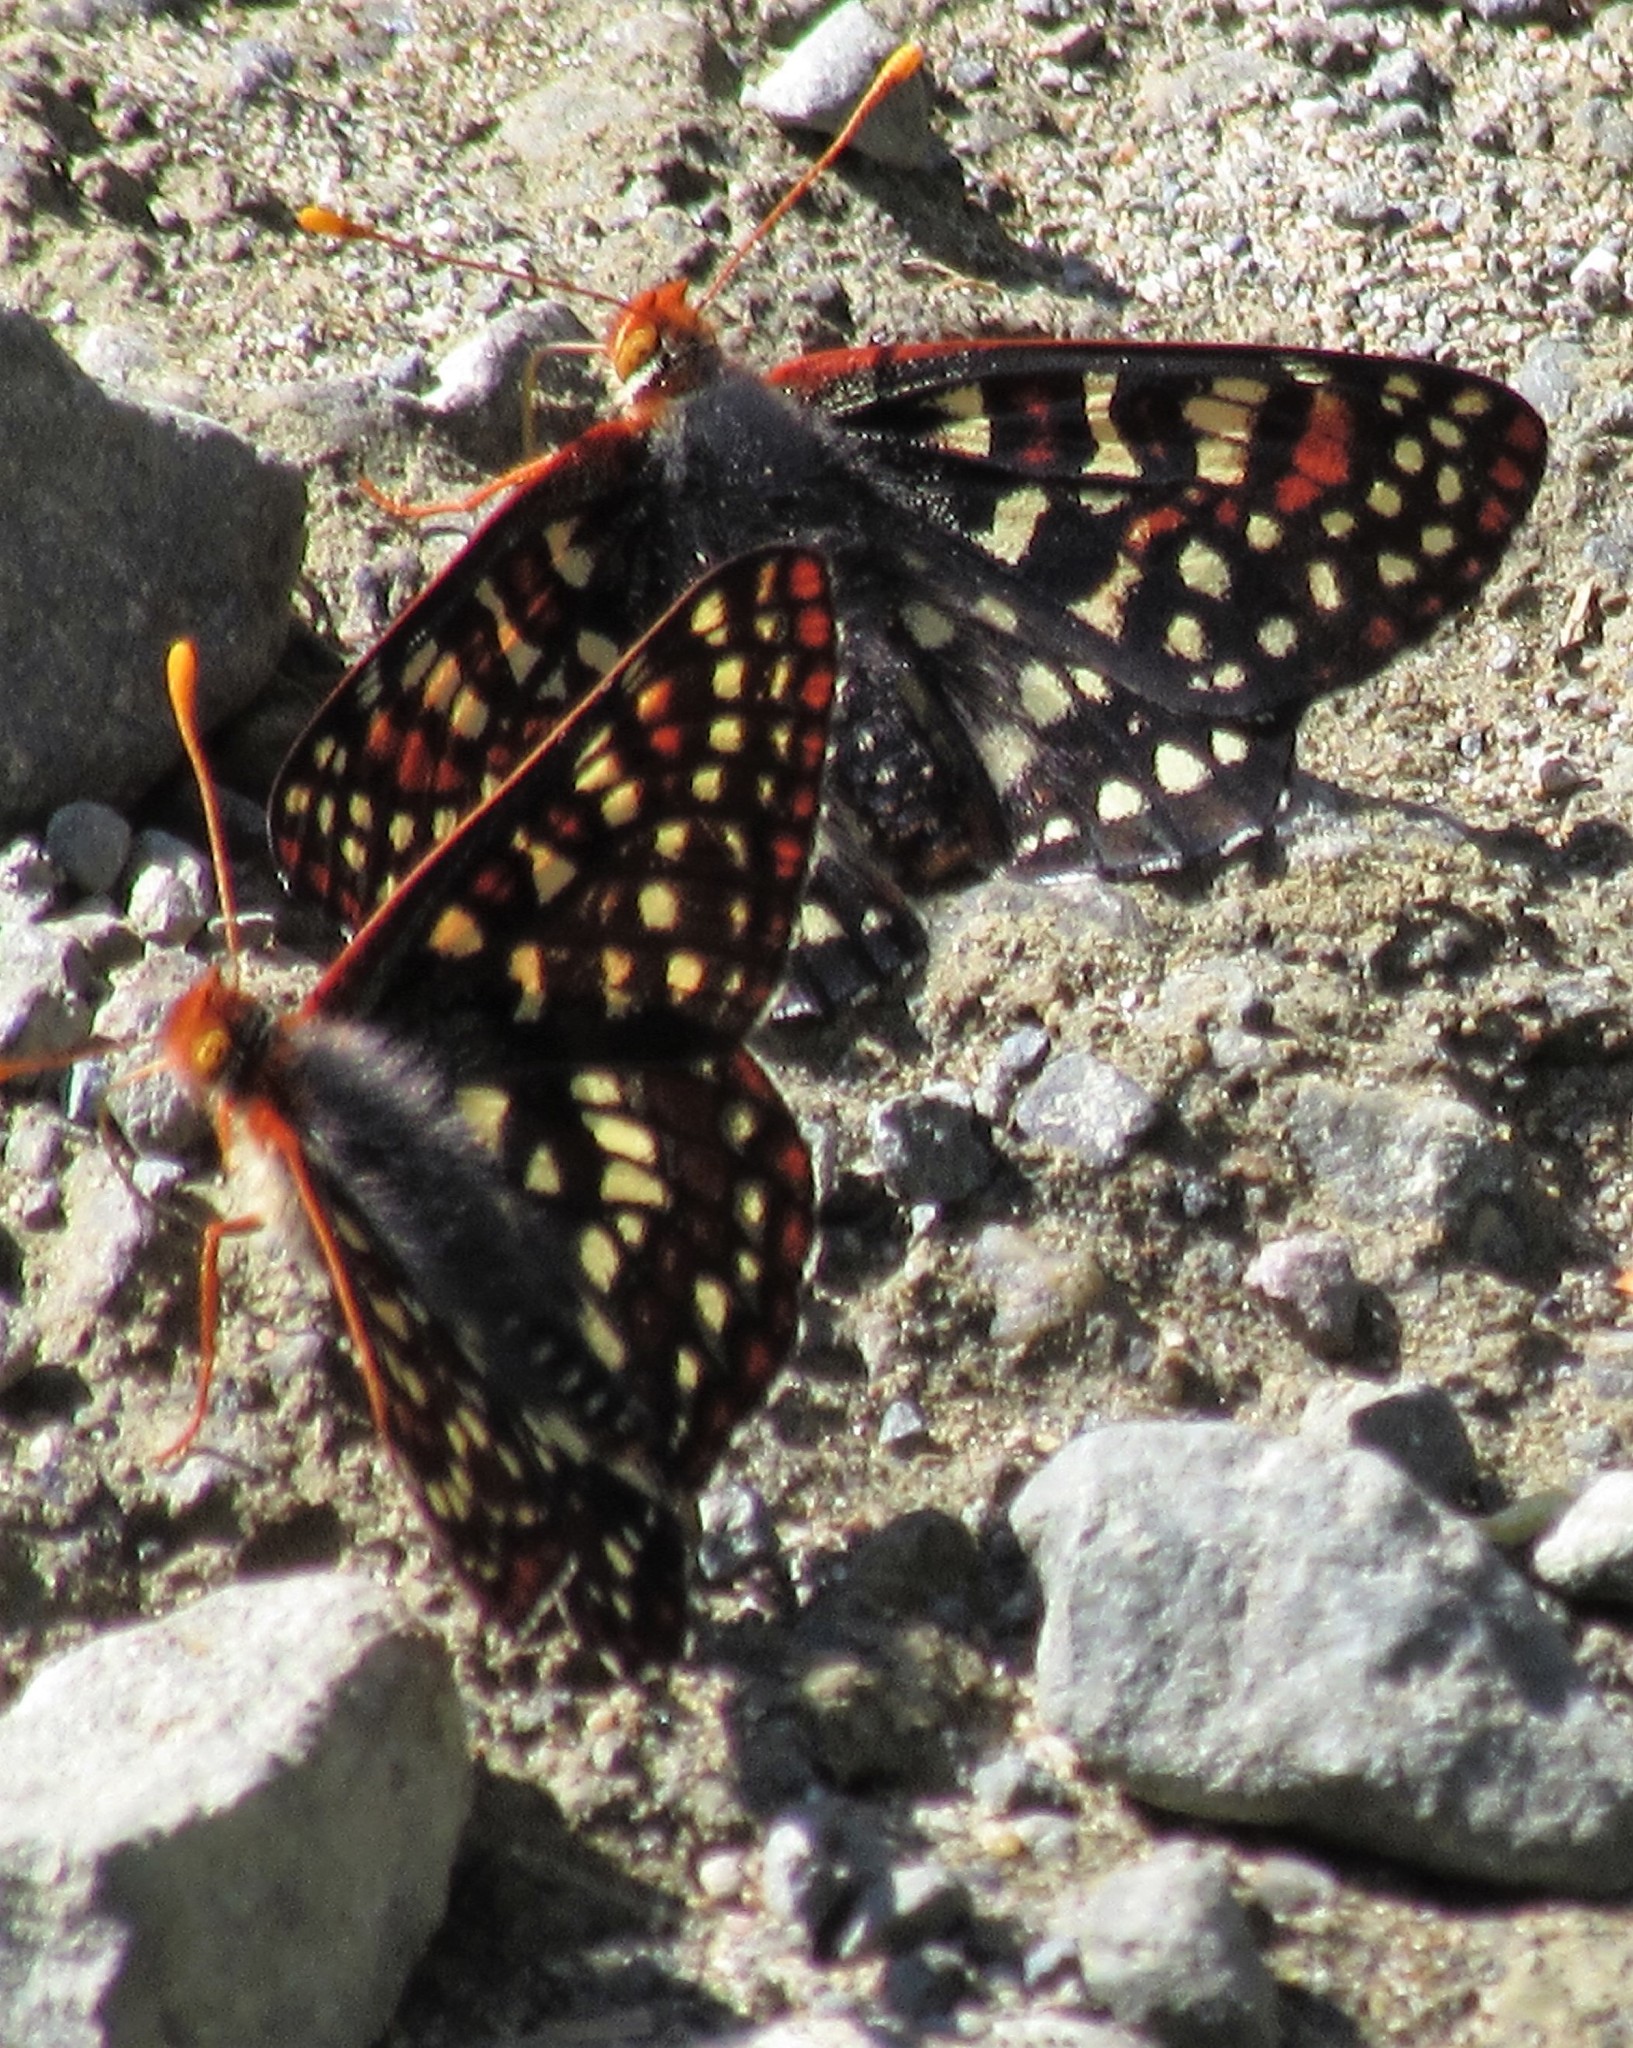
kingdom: Animalia
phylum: Arthropoda
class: Insecta
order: Lepidoptera
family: Nymphalidae
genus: Occidryas
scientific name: Occidryas chalcedona
